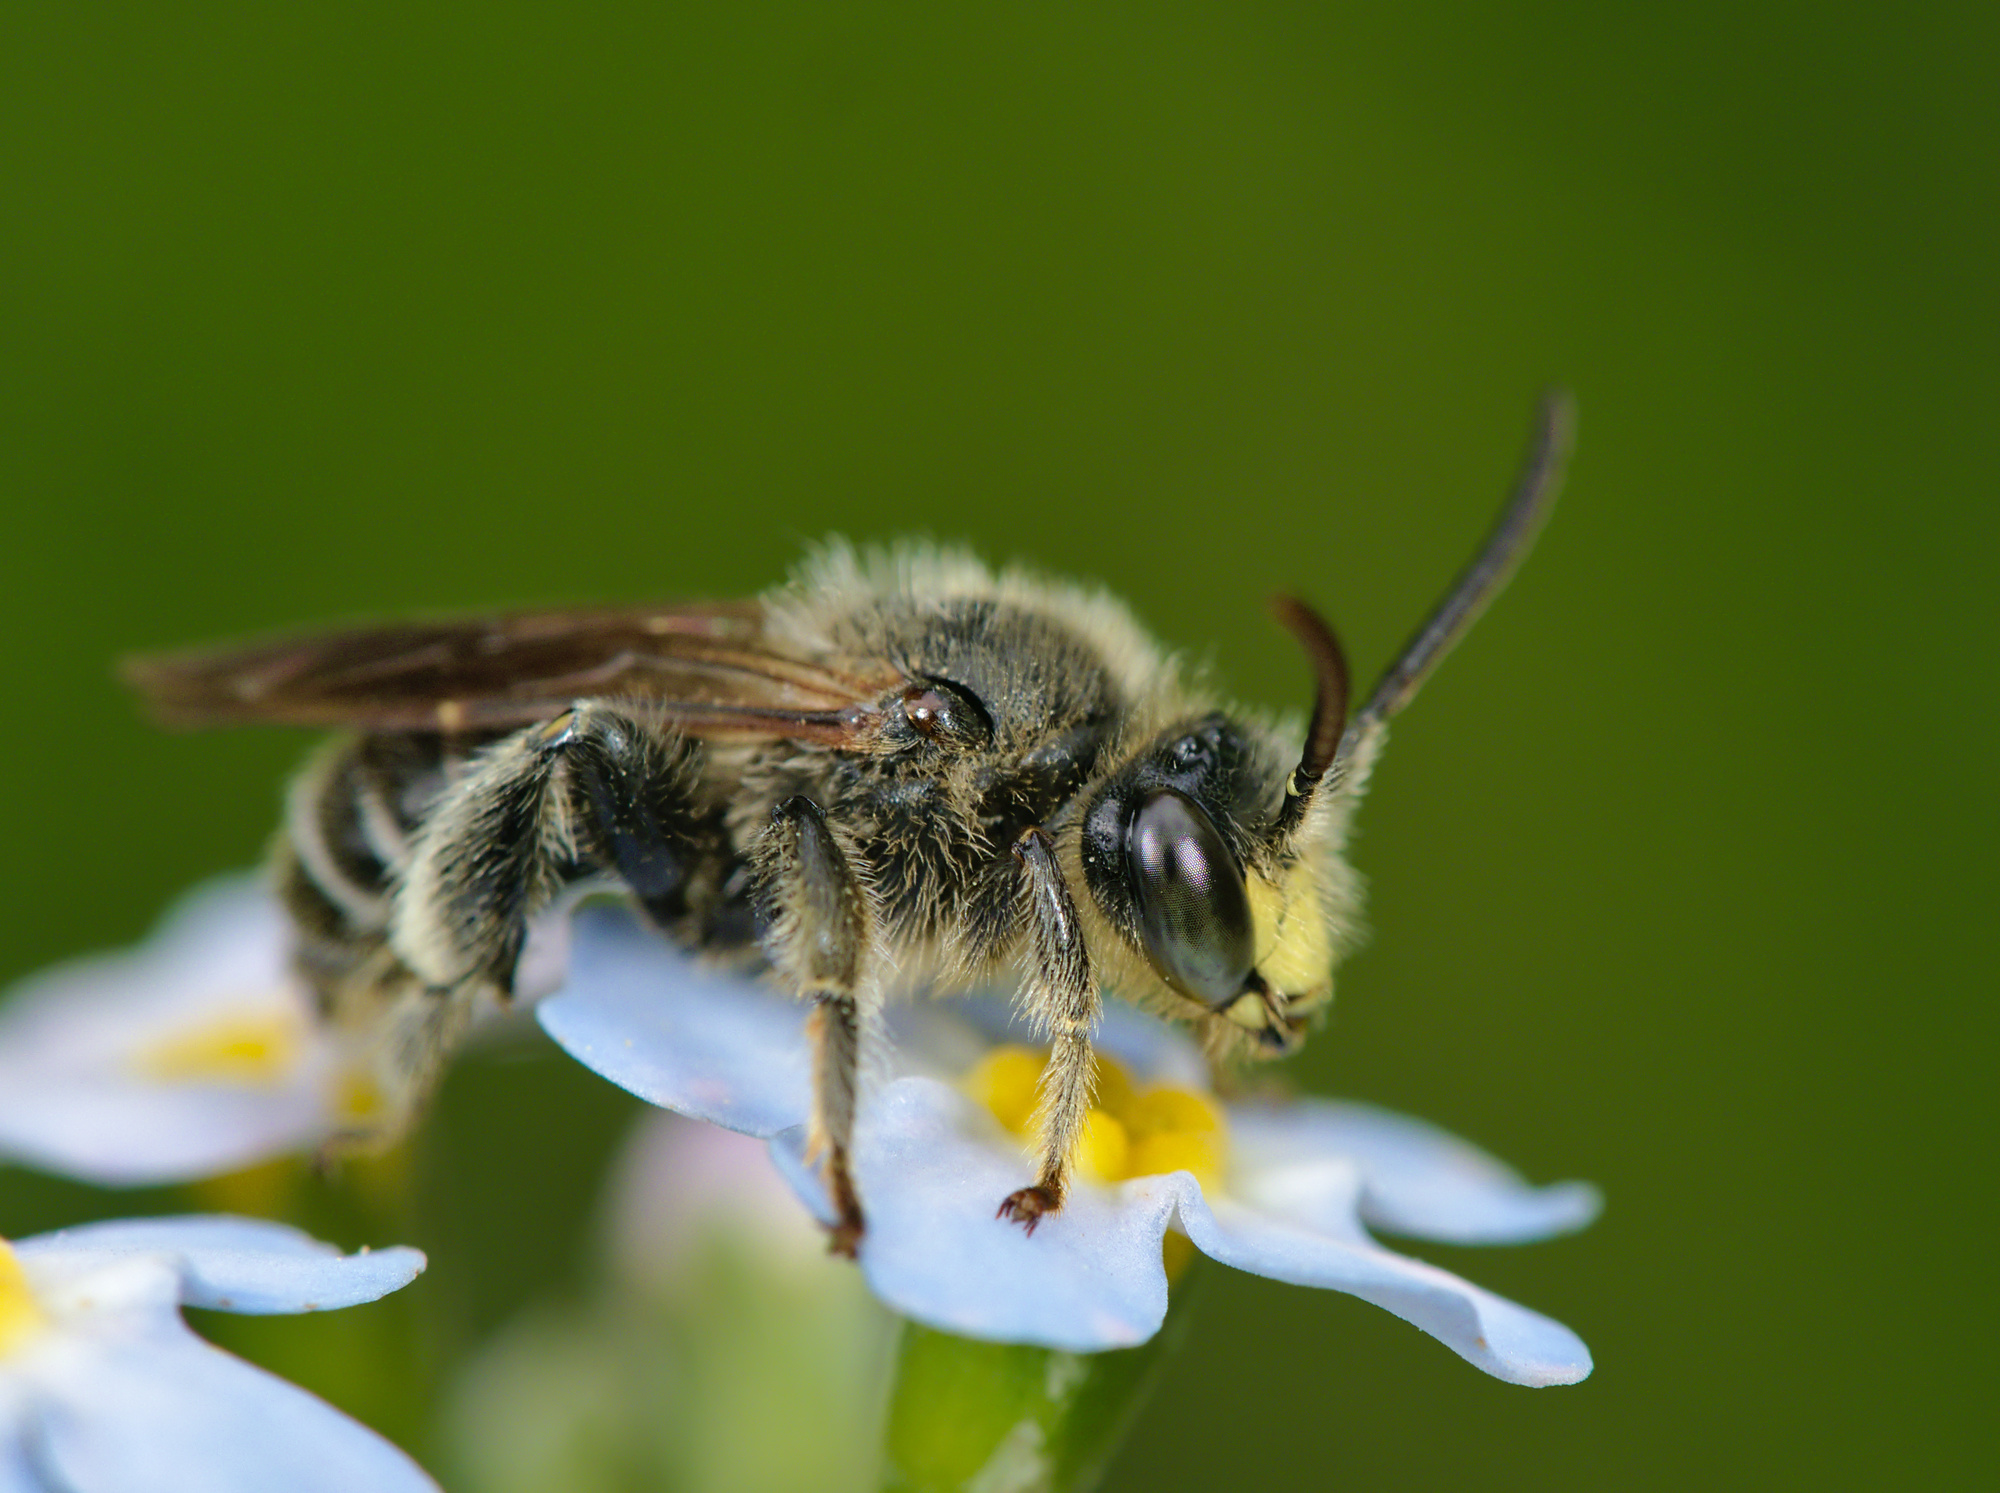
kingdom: Animalia
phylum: Arthropoda
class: Insecta
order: Hymenoptera
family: Melittidae
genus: Macropis
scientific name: Macropis fulvipes
